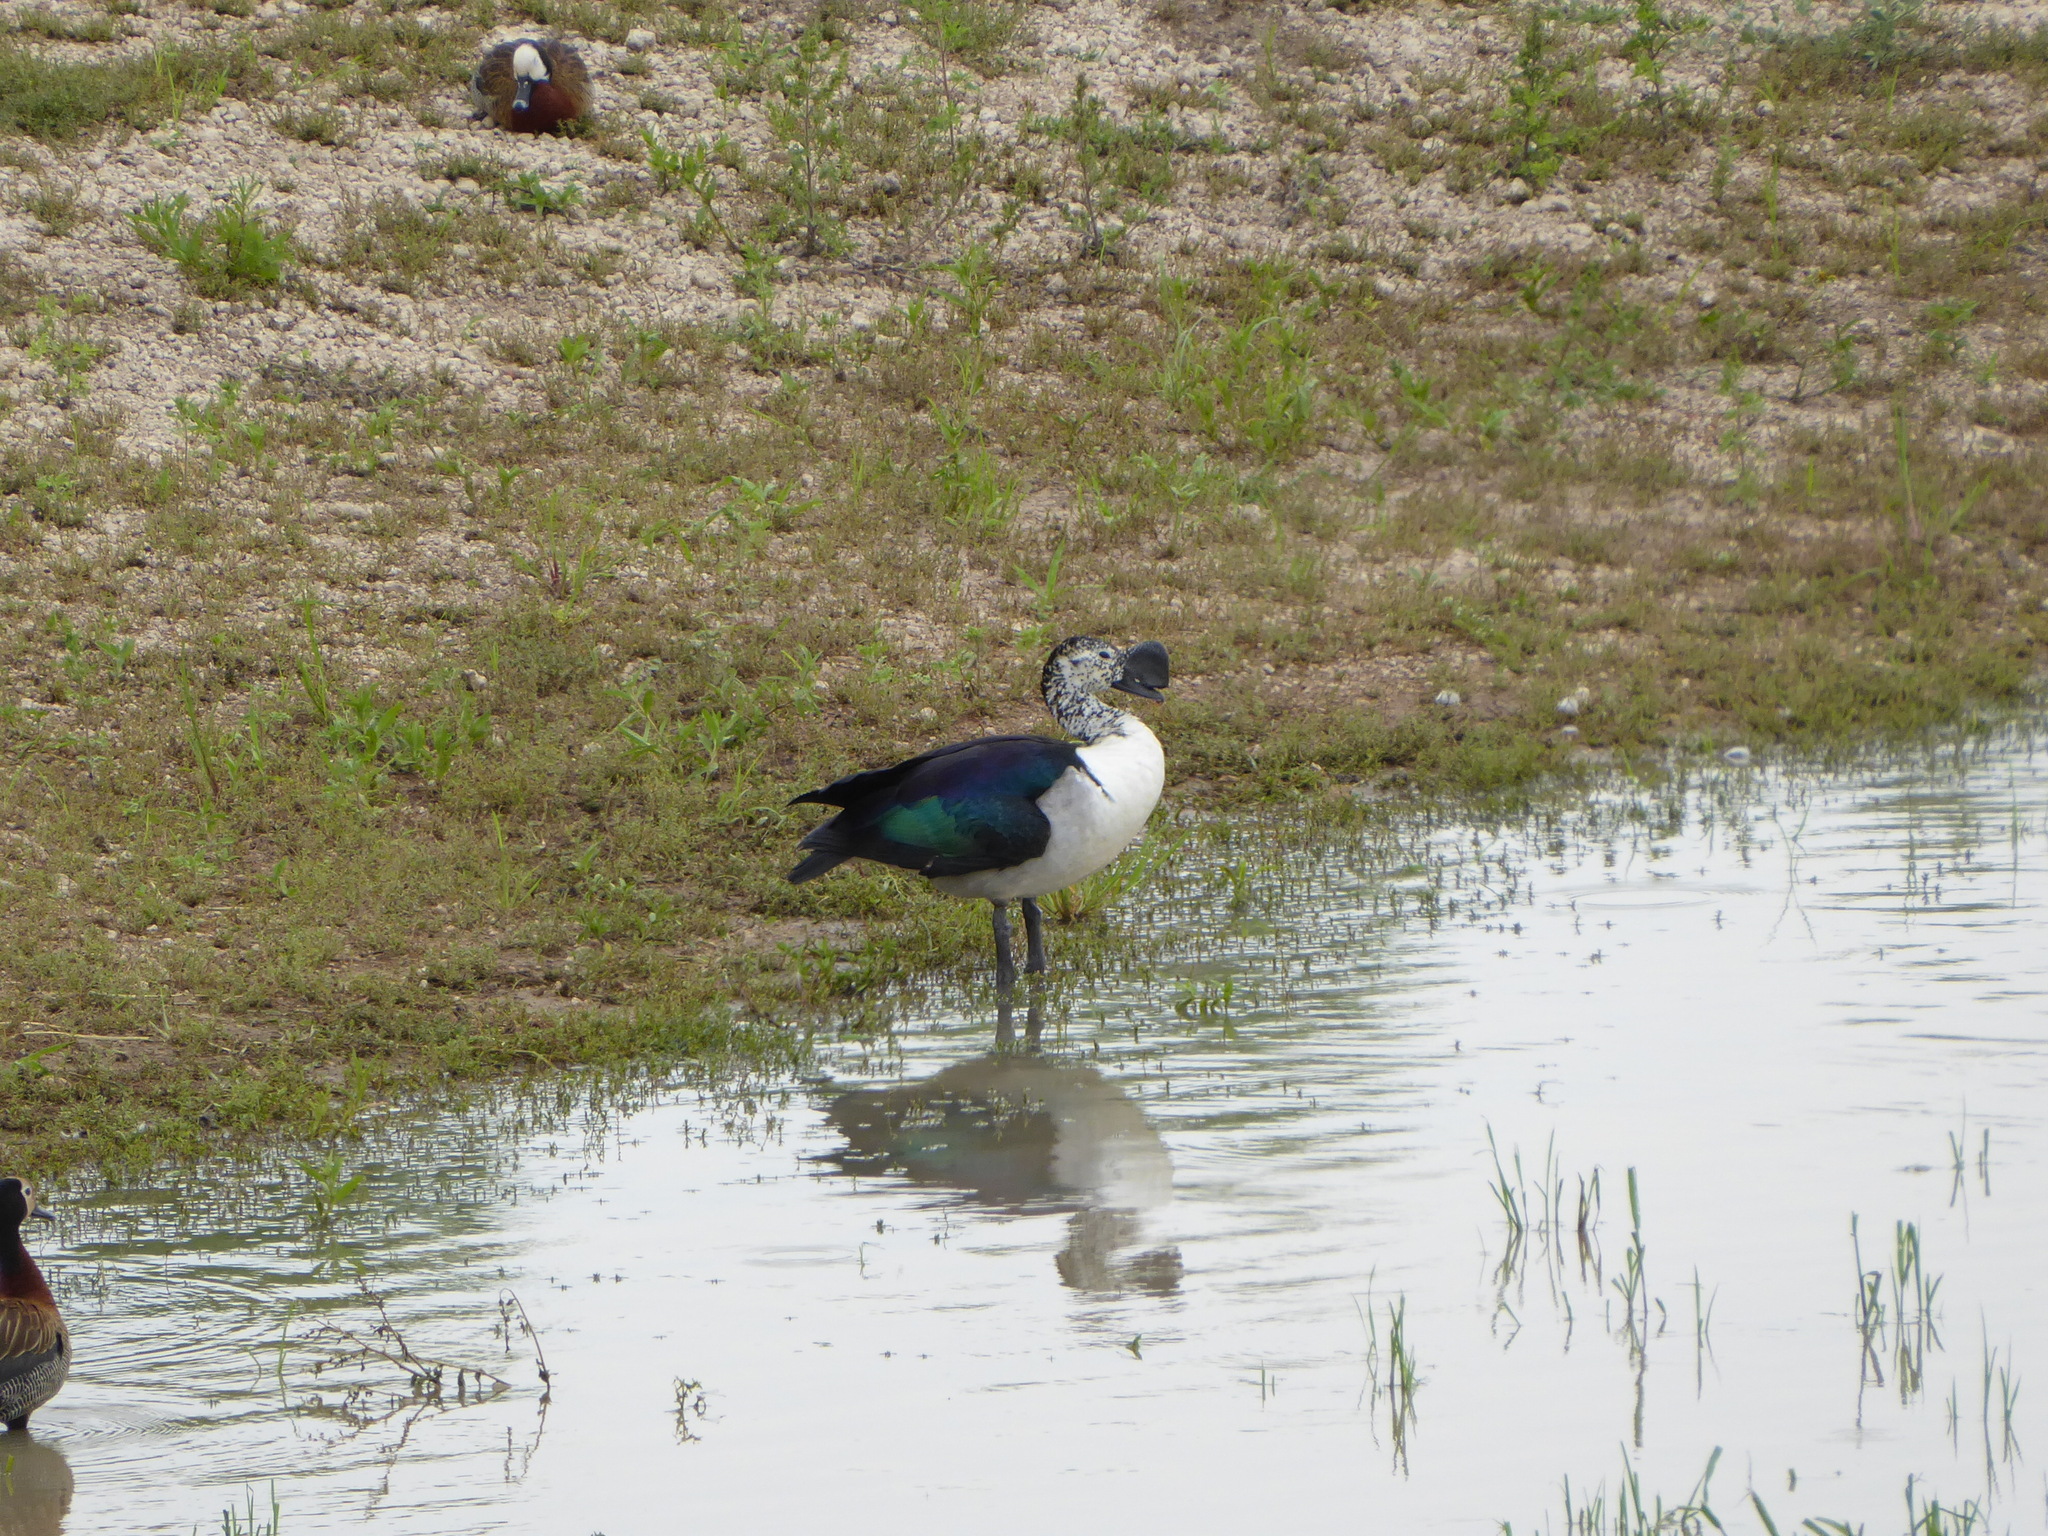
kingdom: Animalia
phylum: Chordata
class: Aves
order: Anseriformes
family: Anatidae
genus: Sarkidiornis
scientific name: Sarkidiornis melanotos
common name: Comb duck
